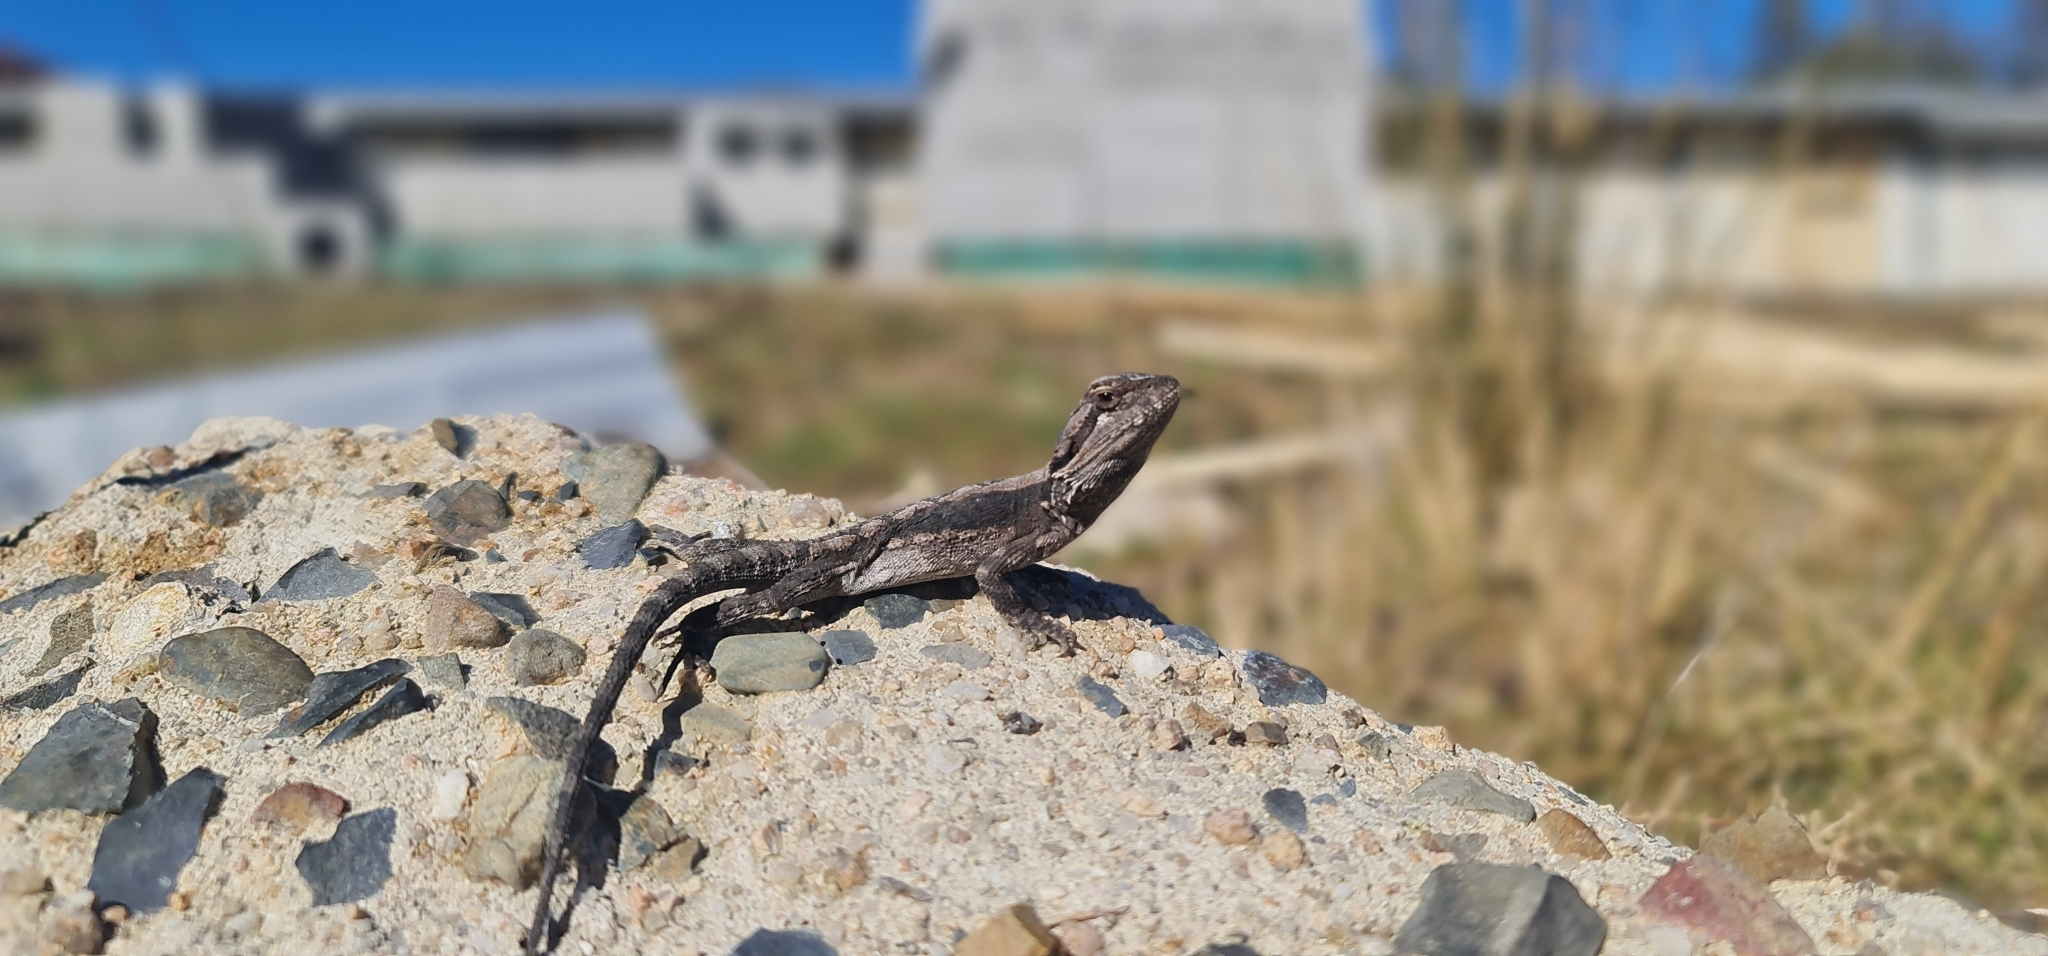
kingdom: Animalia
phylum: Chordata
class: Squamata
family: Agamidae
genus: Pogona
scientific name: Pogona barbata
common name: Bearded dragon
